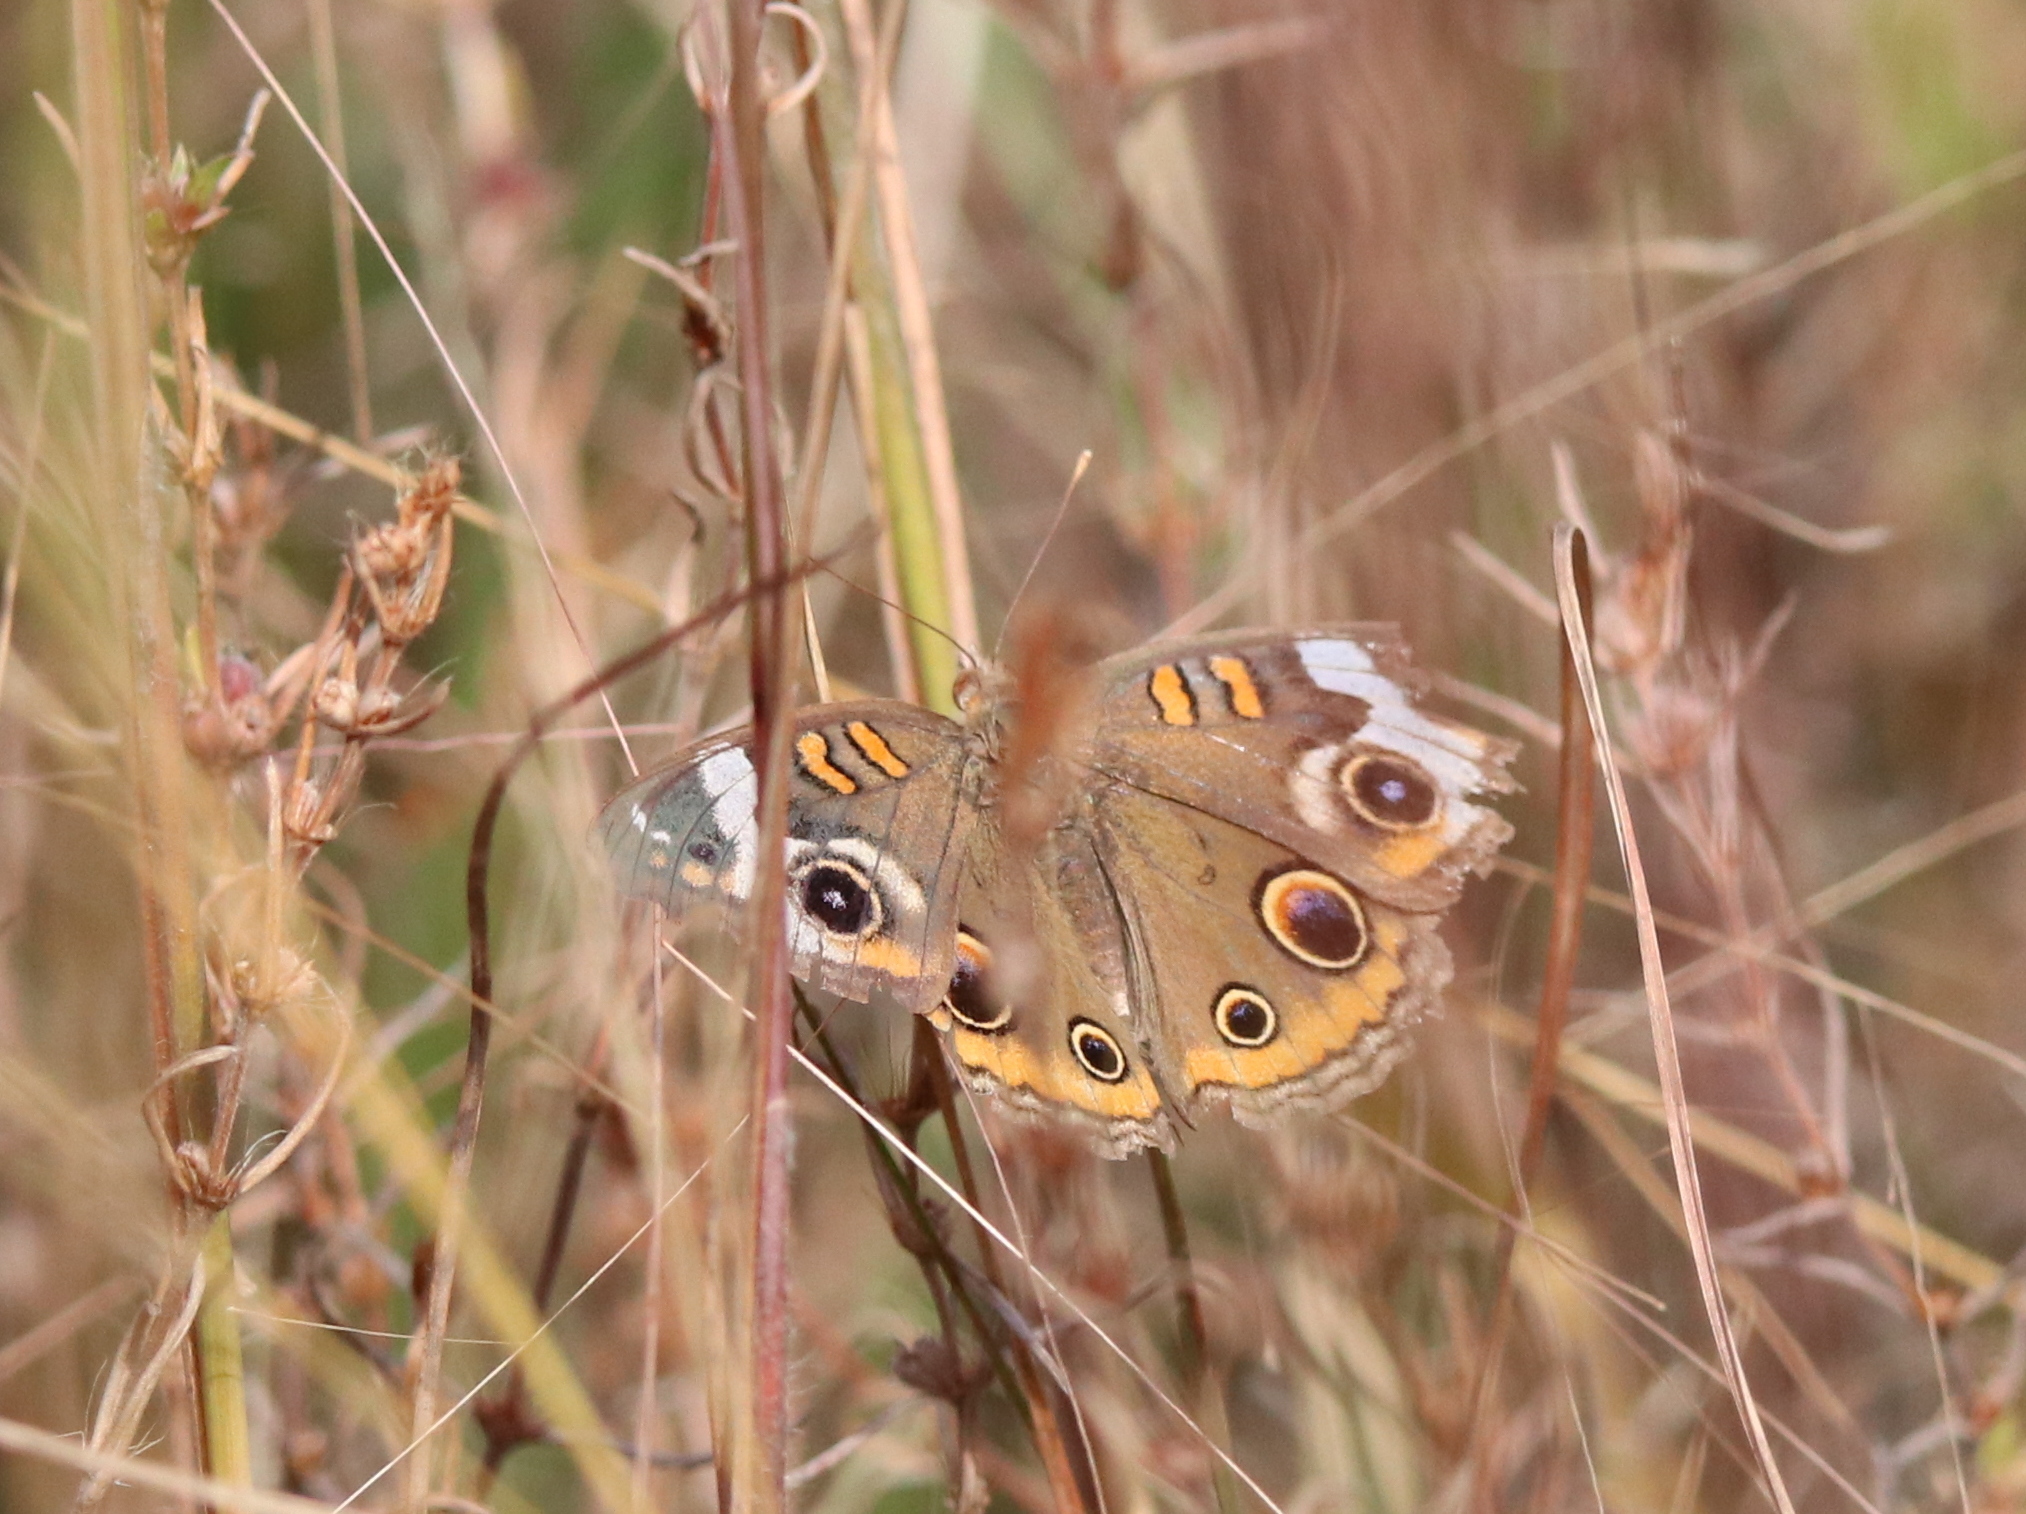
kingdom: Animalia
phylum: Arthropoda
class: Insecta
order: Lepidoptera
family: Nymphalidae
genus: Junonia
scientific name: Junonia coenia
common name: Common buckeye
